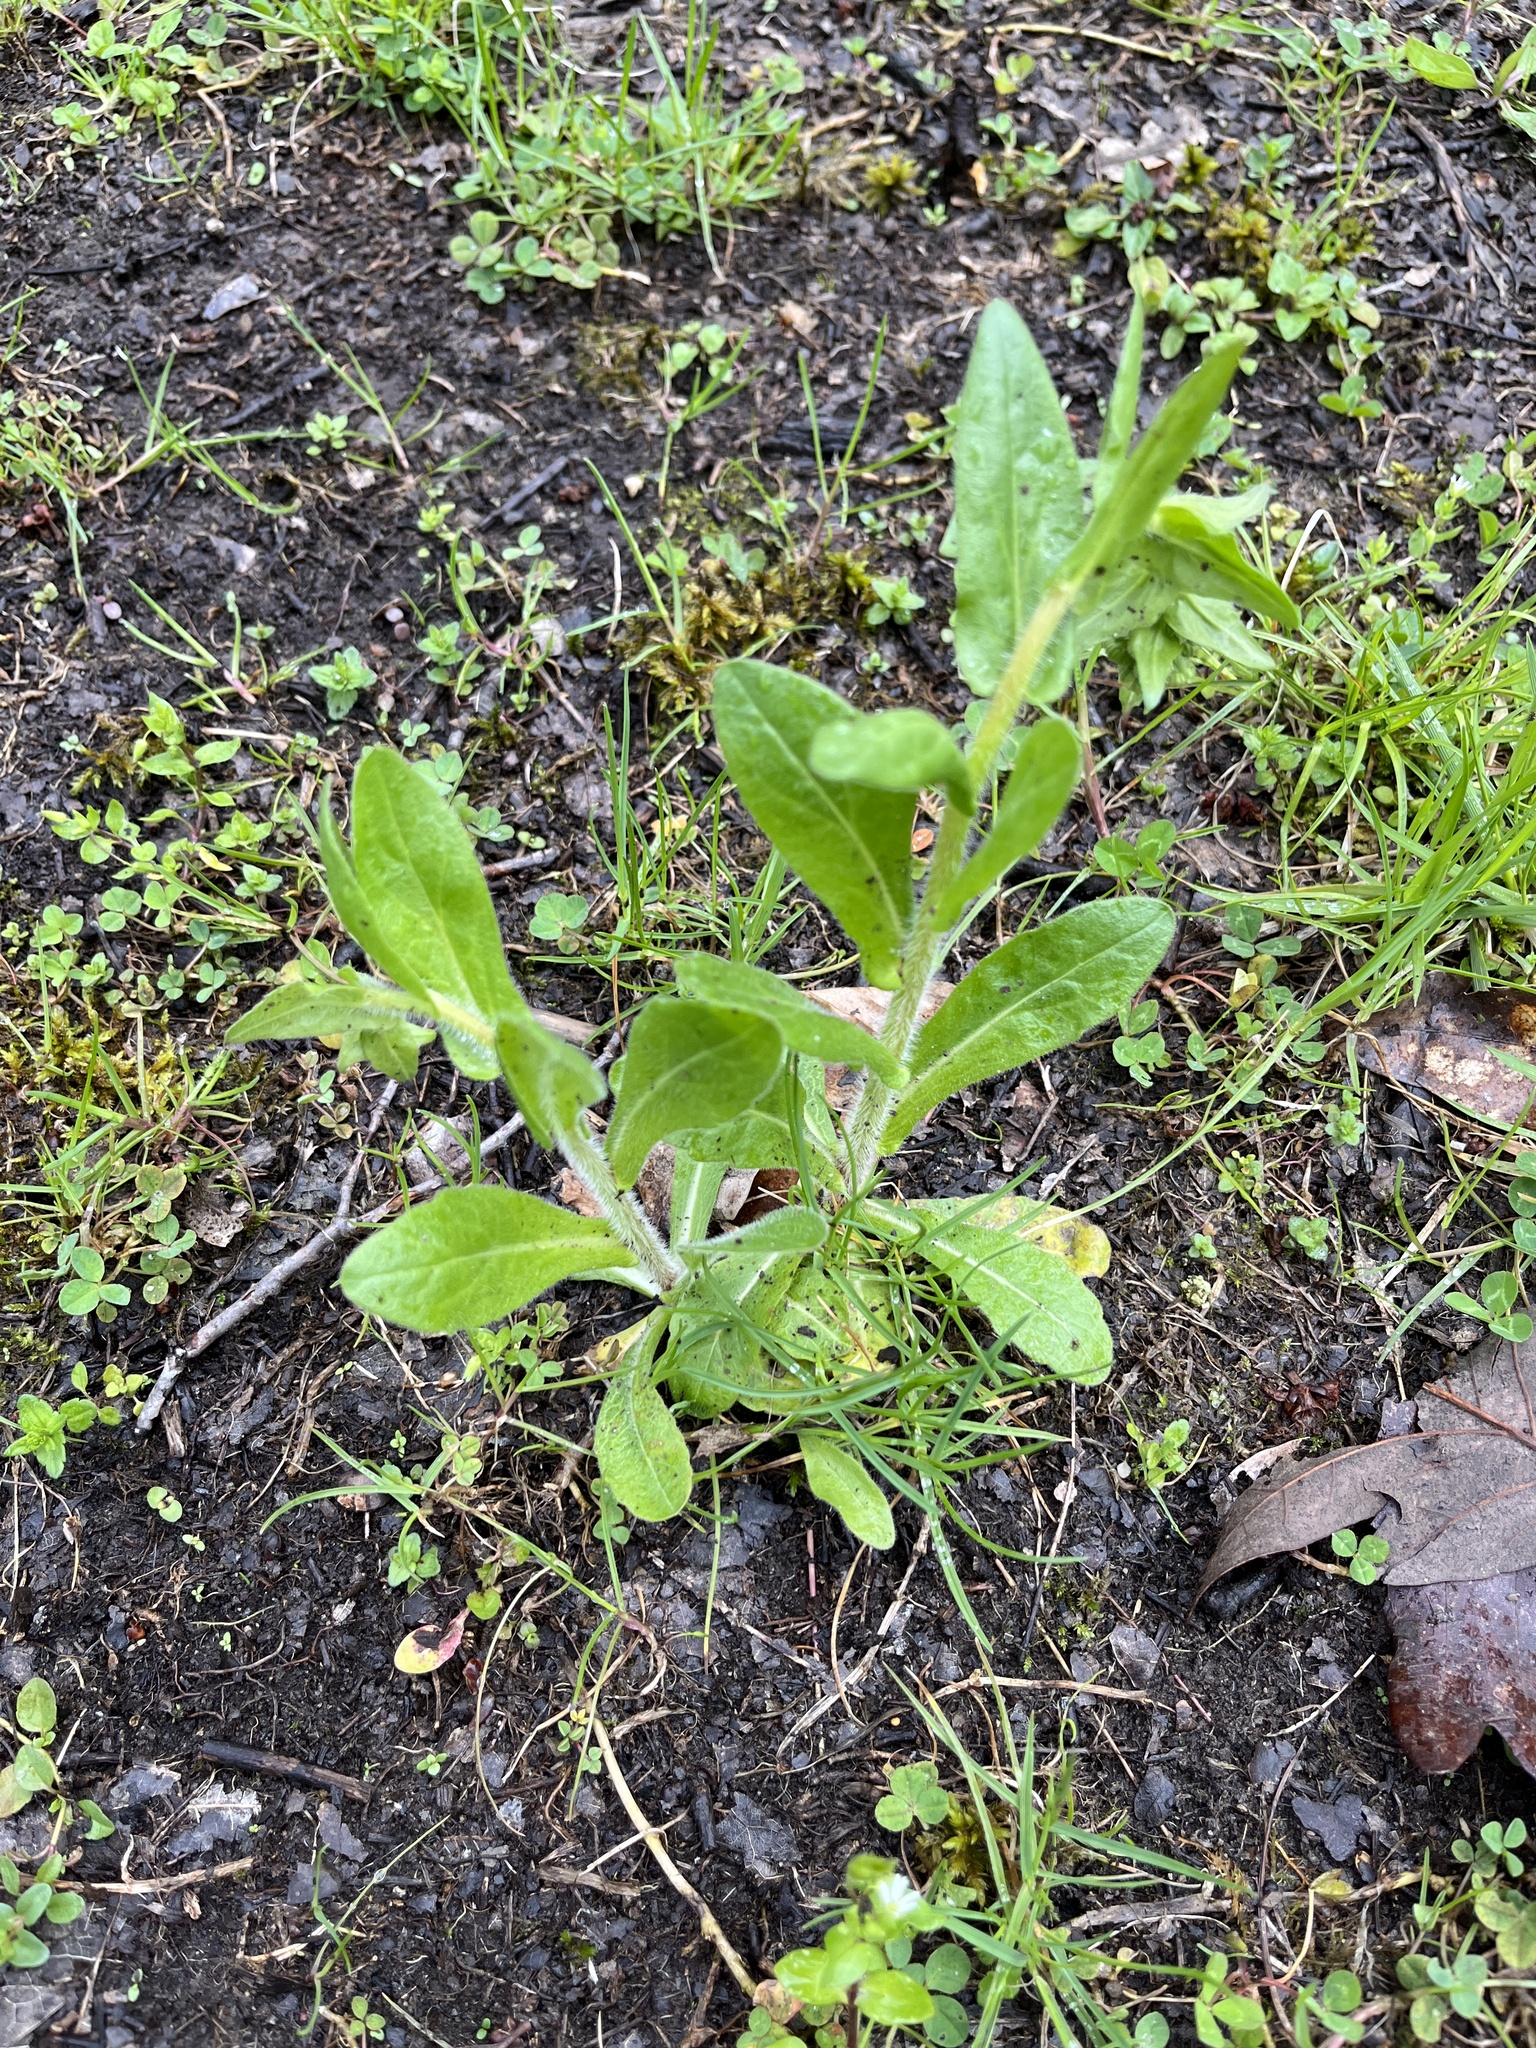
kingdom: Plantae
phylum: Tracheophyta
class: Magnoliopsida
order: Asterales
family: Asteraceae
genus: Erigeron
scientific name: Erigeron philadelphicus
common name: Robin's-plantain
